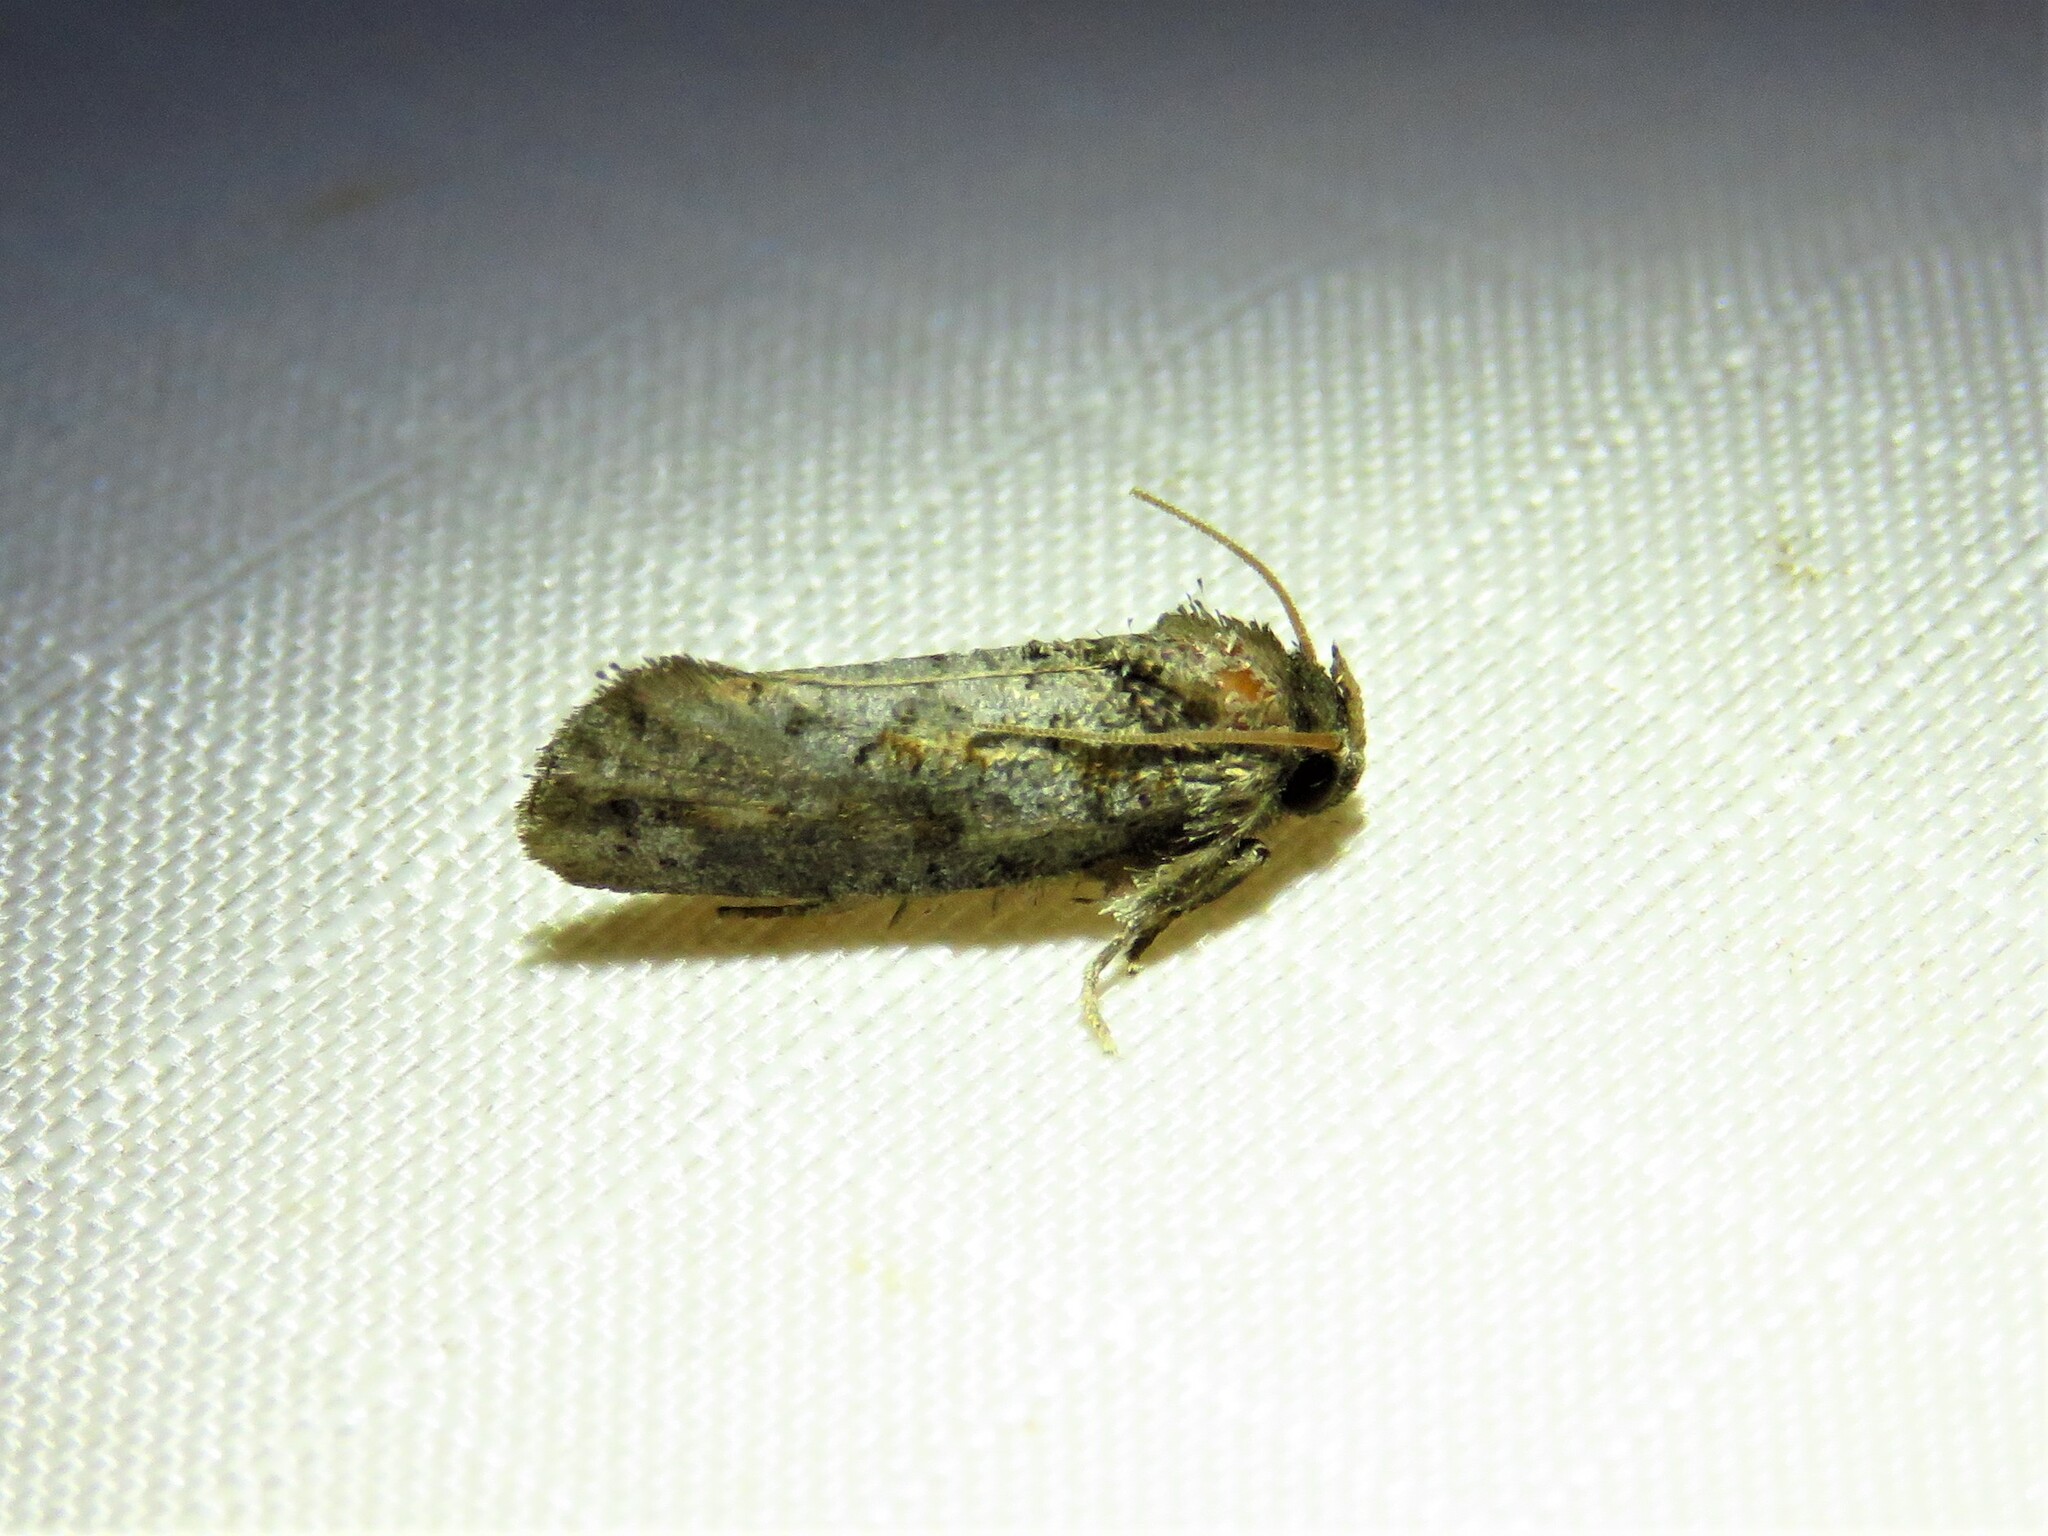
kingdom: Animalia
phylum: Arthropoda
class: Insecta
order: Lepidoptera
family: Tineidae
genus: Acrolophus
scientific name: Acrolophus piger
